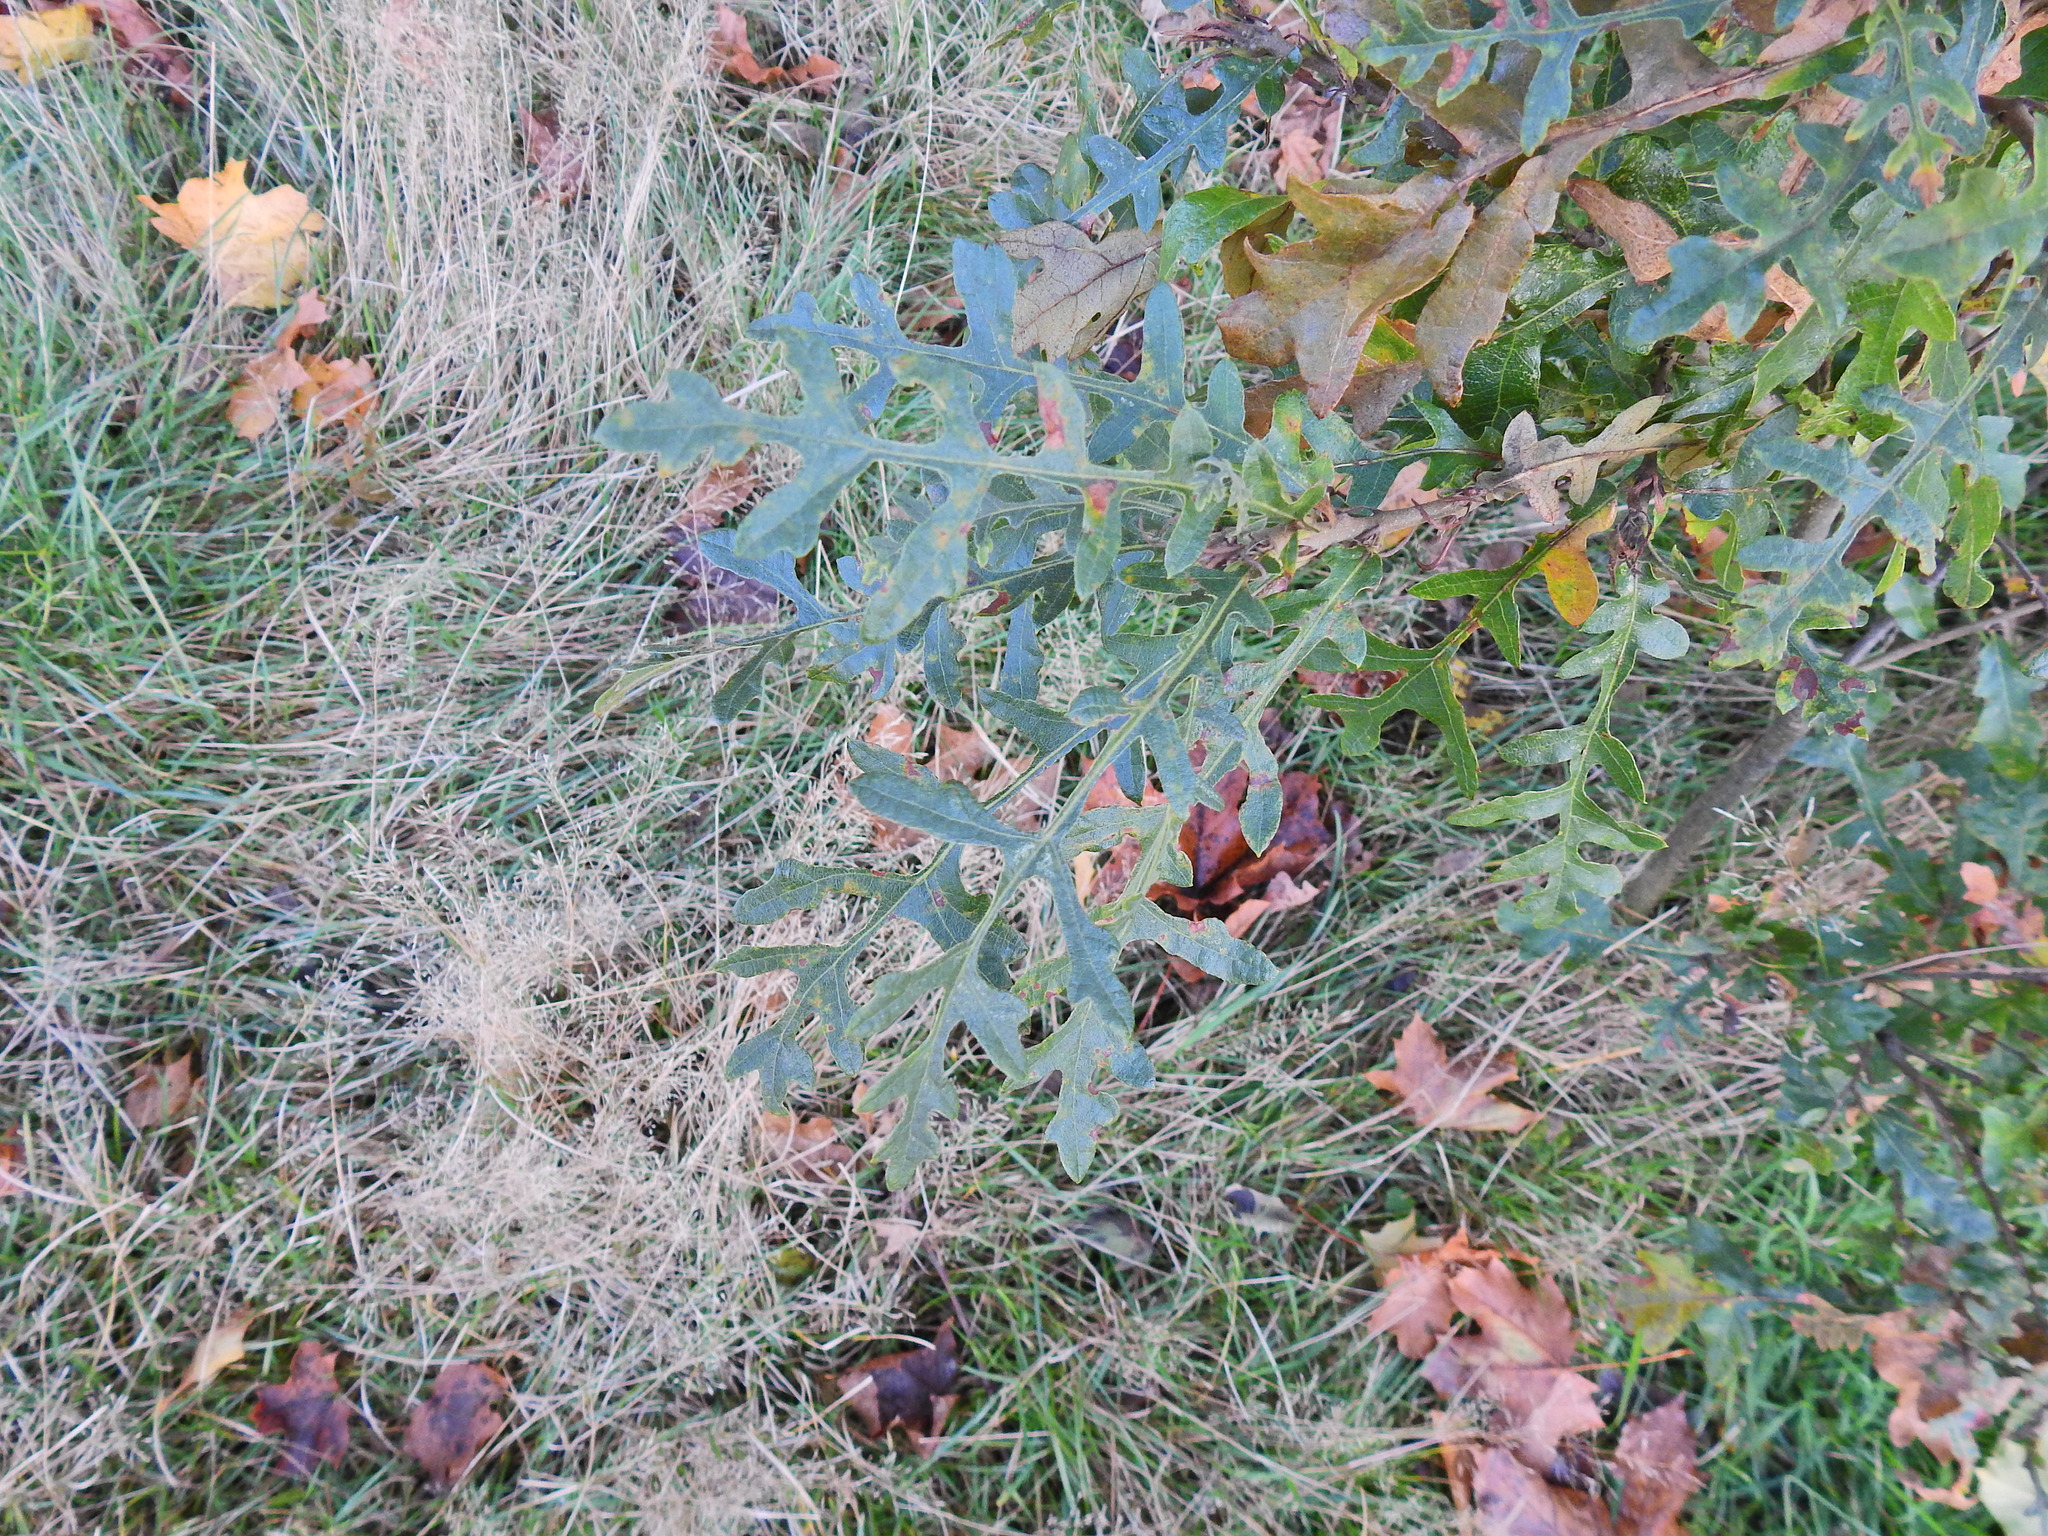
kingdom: Plantae
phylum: Tracheophyta
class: Magnoliopsida
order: Fagales
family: Fagaceae
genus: Quercus
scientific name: Quercus cerris
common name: Turkey oak
